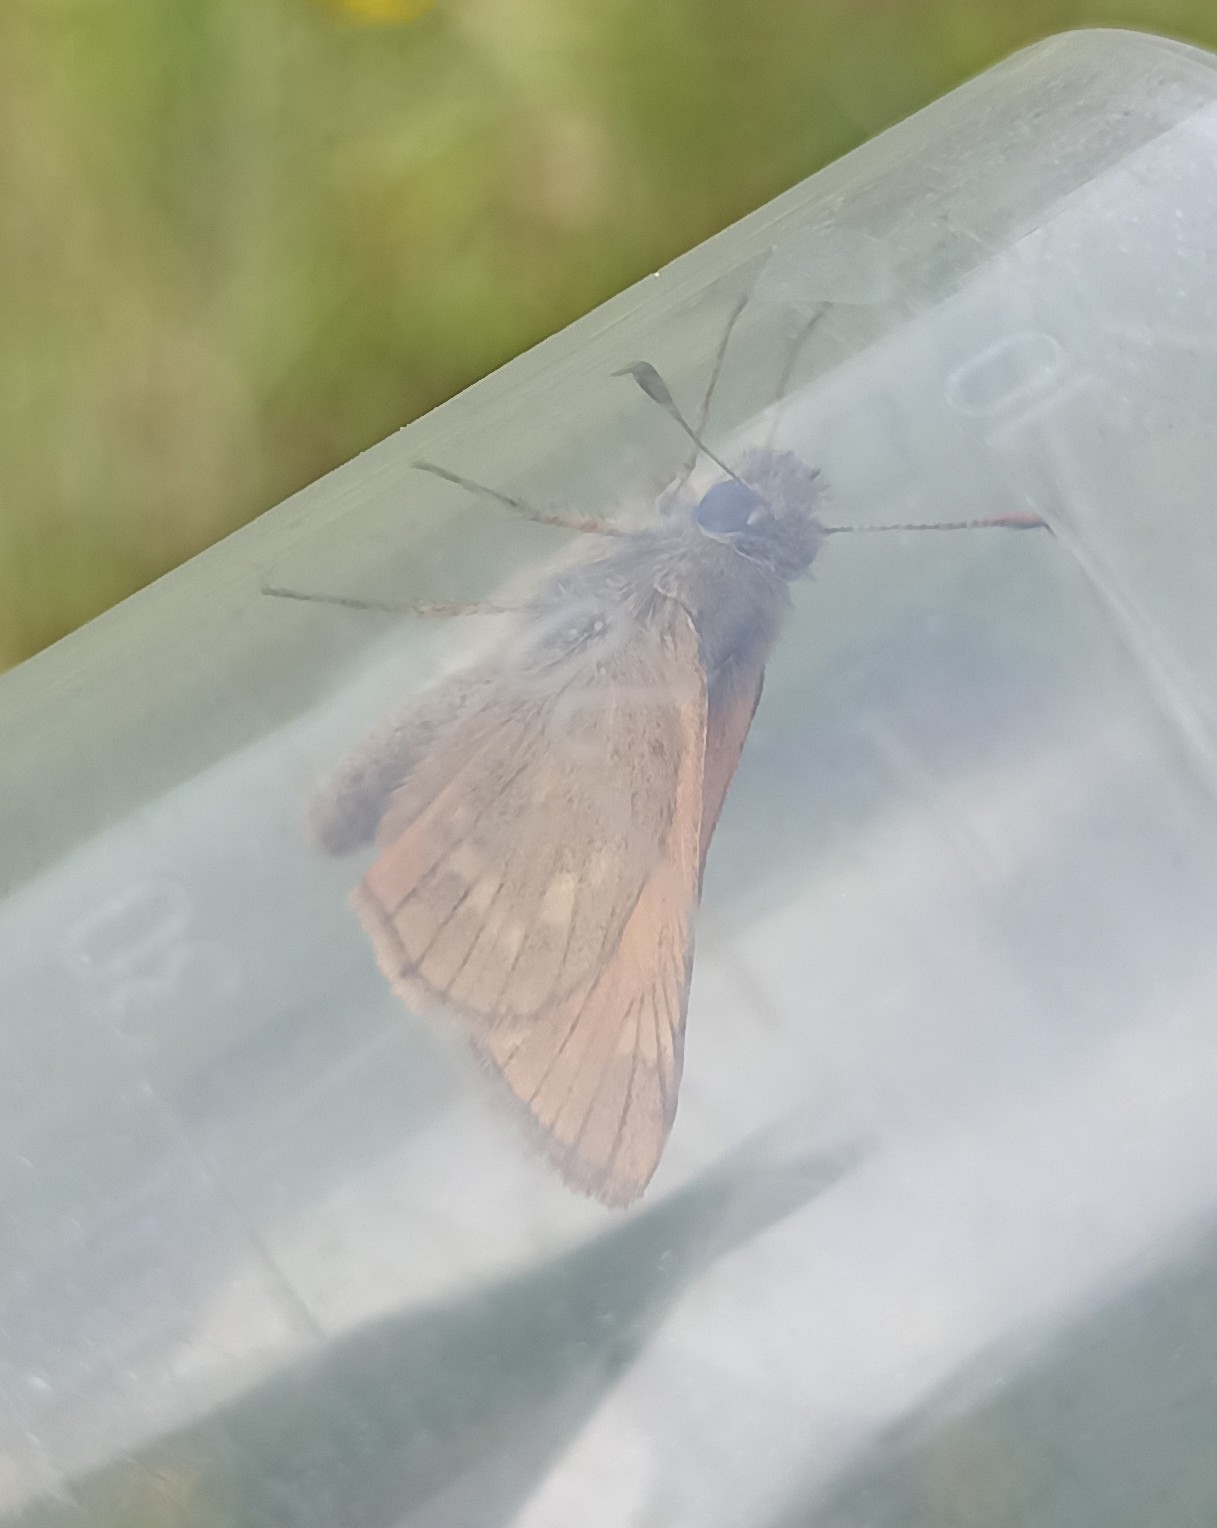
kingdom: Animalia
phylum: Arthropoda
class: Insecta
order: Lepidoptera
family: Hesperiidae
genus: Ochlodes
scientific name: Ochlodes venata
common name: Large skipper
